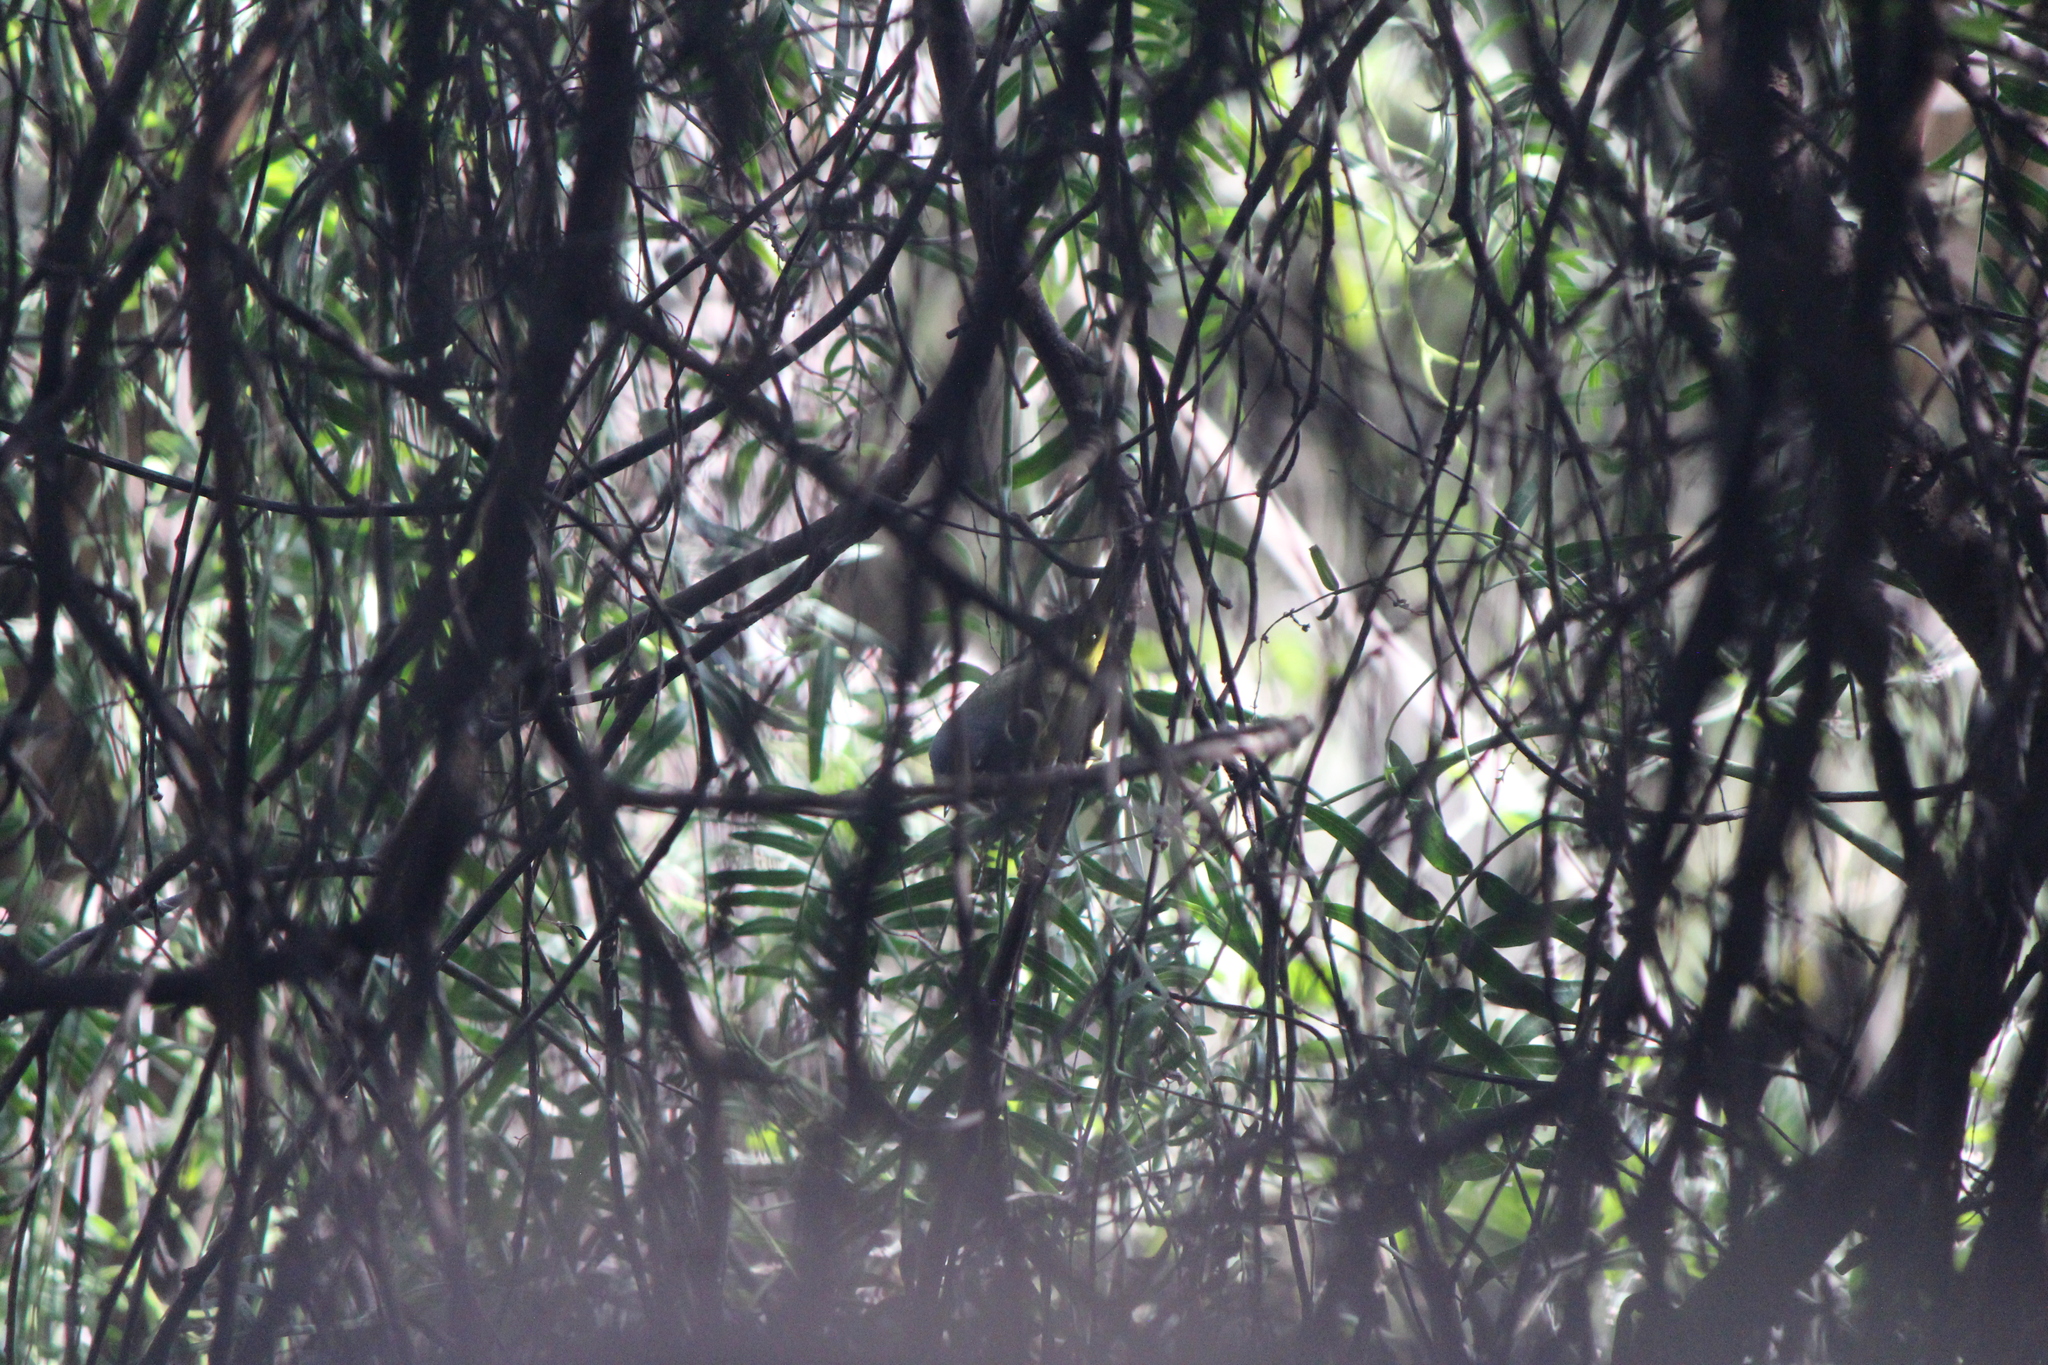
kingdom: Animalia
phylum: Chordata
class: Aves
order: Passeriformes
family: Parulidae
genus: Geothlypis
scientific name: Geothlypis tolmiei
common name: Macgillivray's warbler
